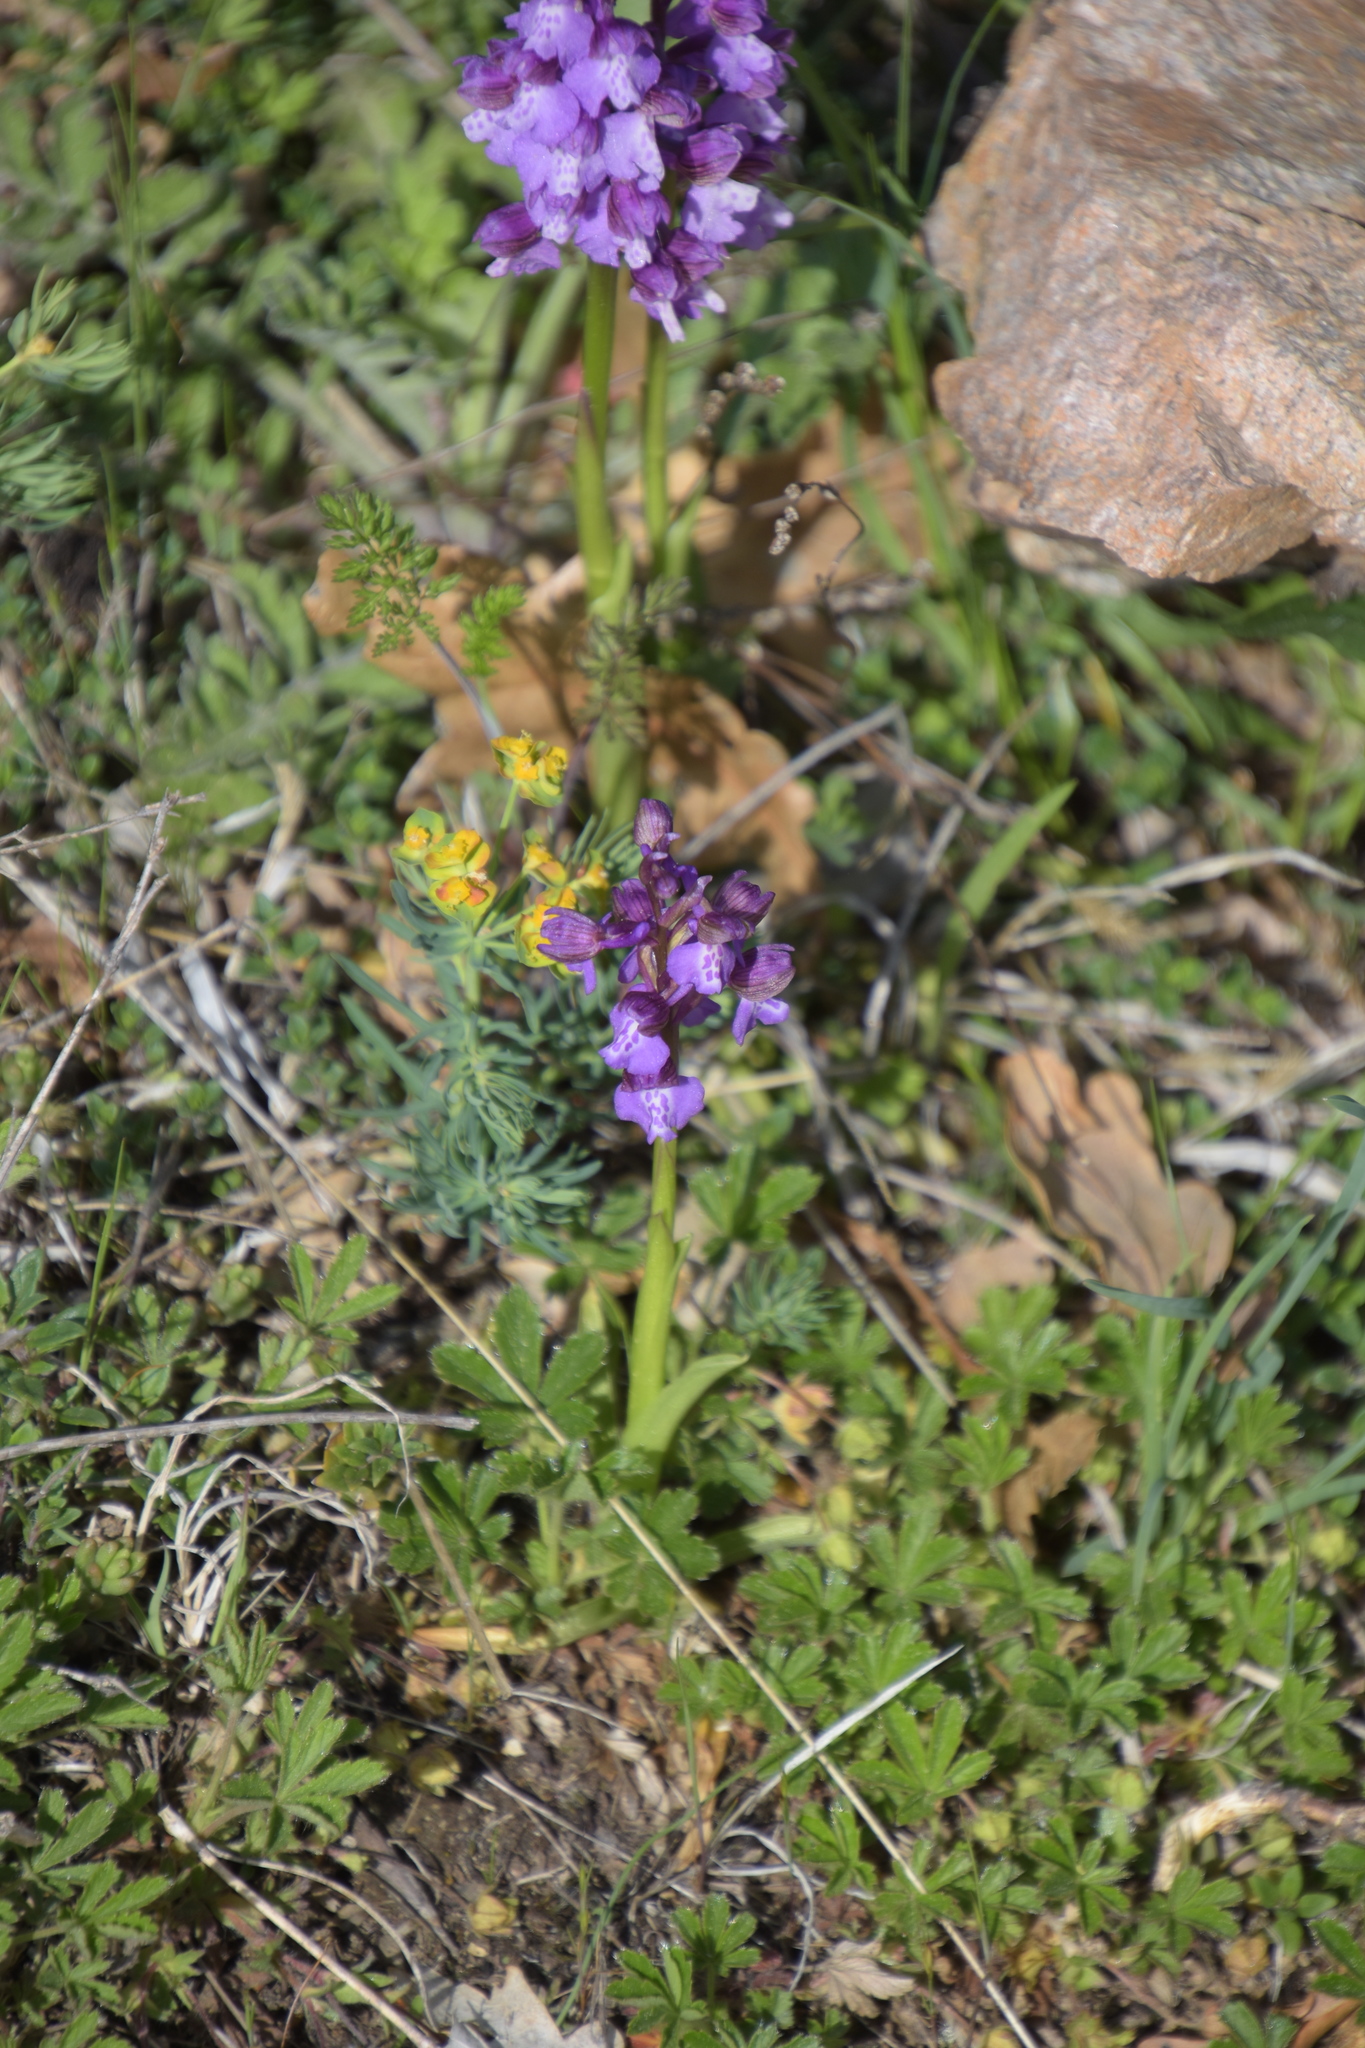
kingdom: Plantae
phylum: Tracheophyta
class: Liliopsida
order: Asparagales
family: Orchidaceae
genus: Anacamptis
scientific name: Anacamptis morio
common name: Green-winged orchid
